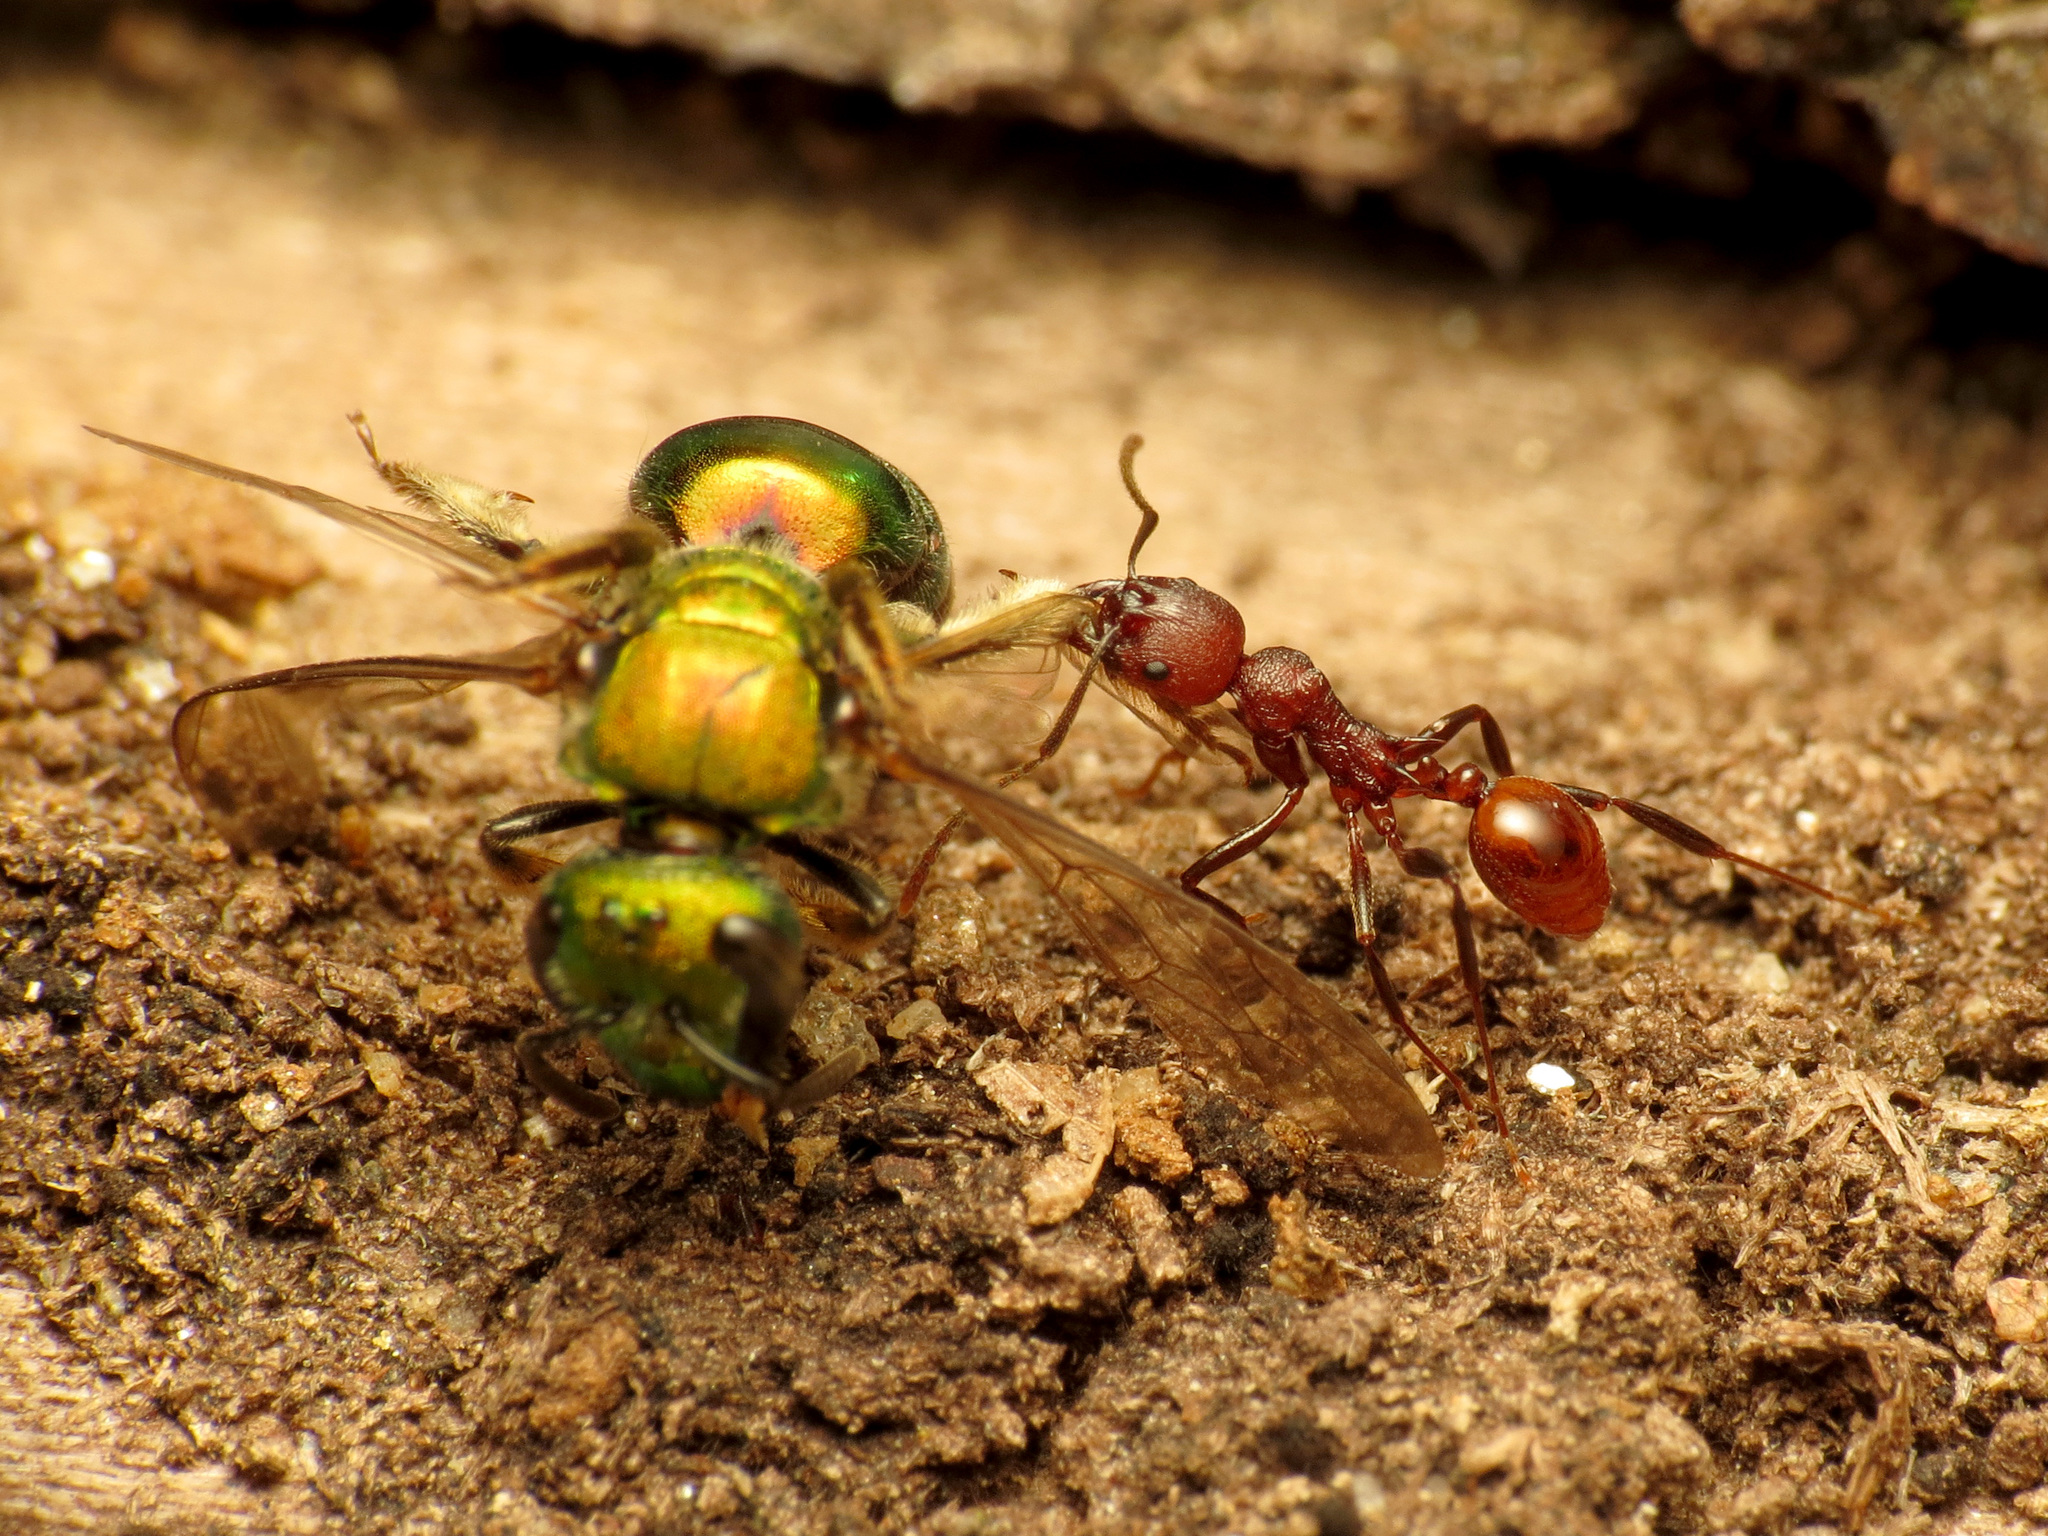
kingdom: Animalia
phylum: Arthropoda
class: Insecta
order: Hymenoptera
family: Formicidae
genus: Aphaenogaster
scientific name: Aphaenogaster tennesseensis
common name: Tennessee thread-waisted ant
